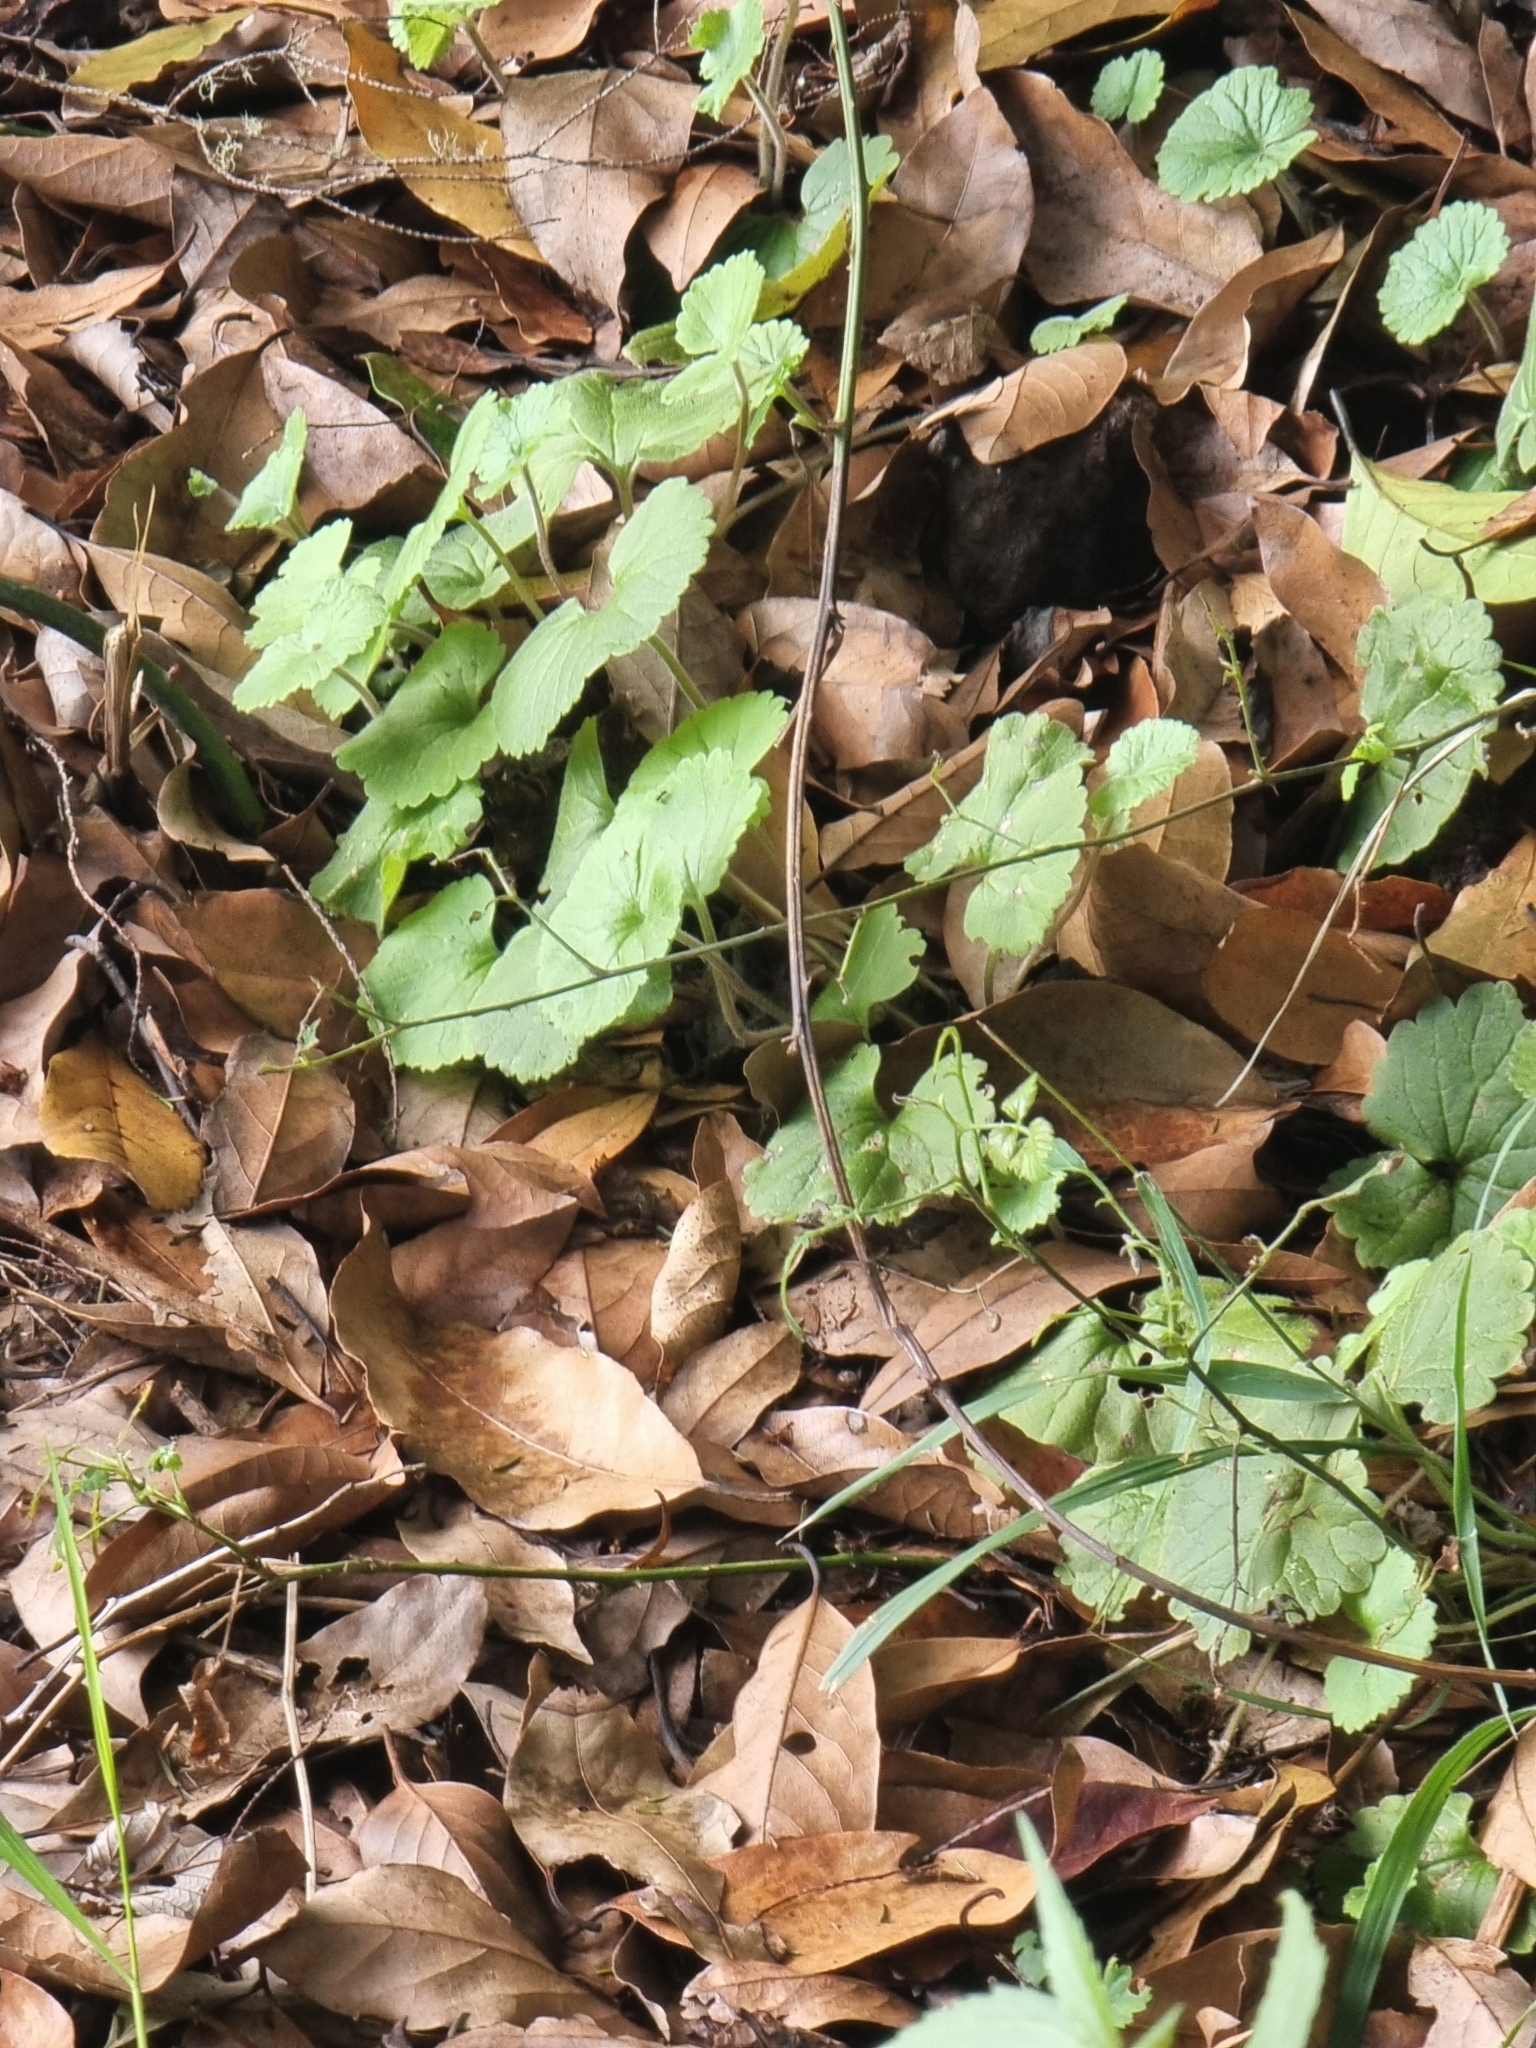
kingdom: Plantae
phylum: Tracheophyta
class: Magnoliopsida
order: Lamiales
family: Plantaginaceae
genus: Sibthorpia
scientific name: Sibthorpia peregrina
